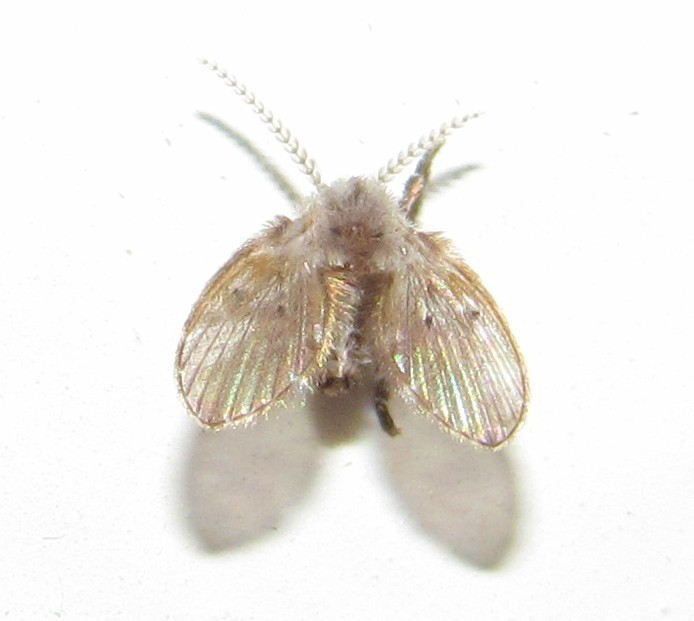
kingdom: Animalia
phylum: Arthropoda
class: Insecta
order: Diptera
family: Psychodidae
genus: Clogmia
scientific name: Clogmia albipunctatus
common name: White-spotted moth fly
